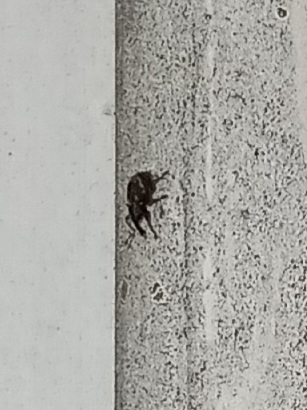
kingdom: Animalia
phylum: Arthropoda
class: Insecta
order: Coleoptera
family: Brachyceridae
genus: Tanysphyrus
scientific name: Tanysphyrus lemnae
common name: Duckweed weevil
